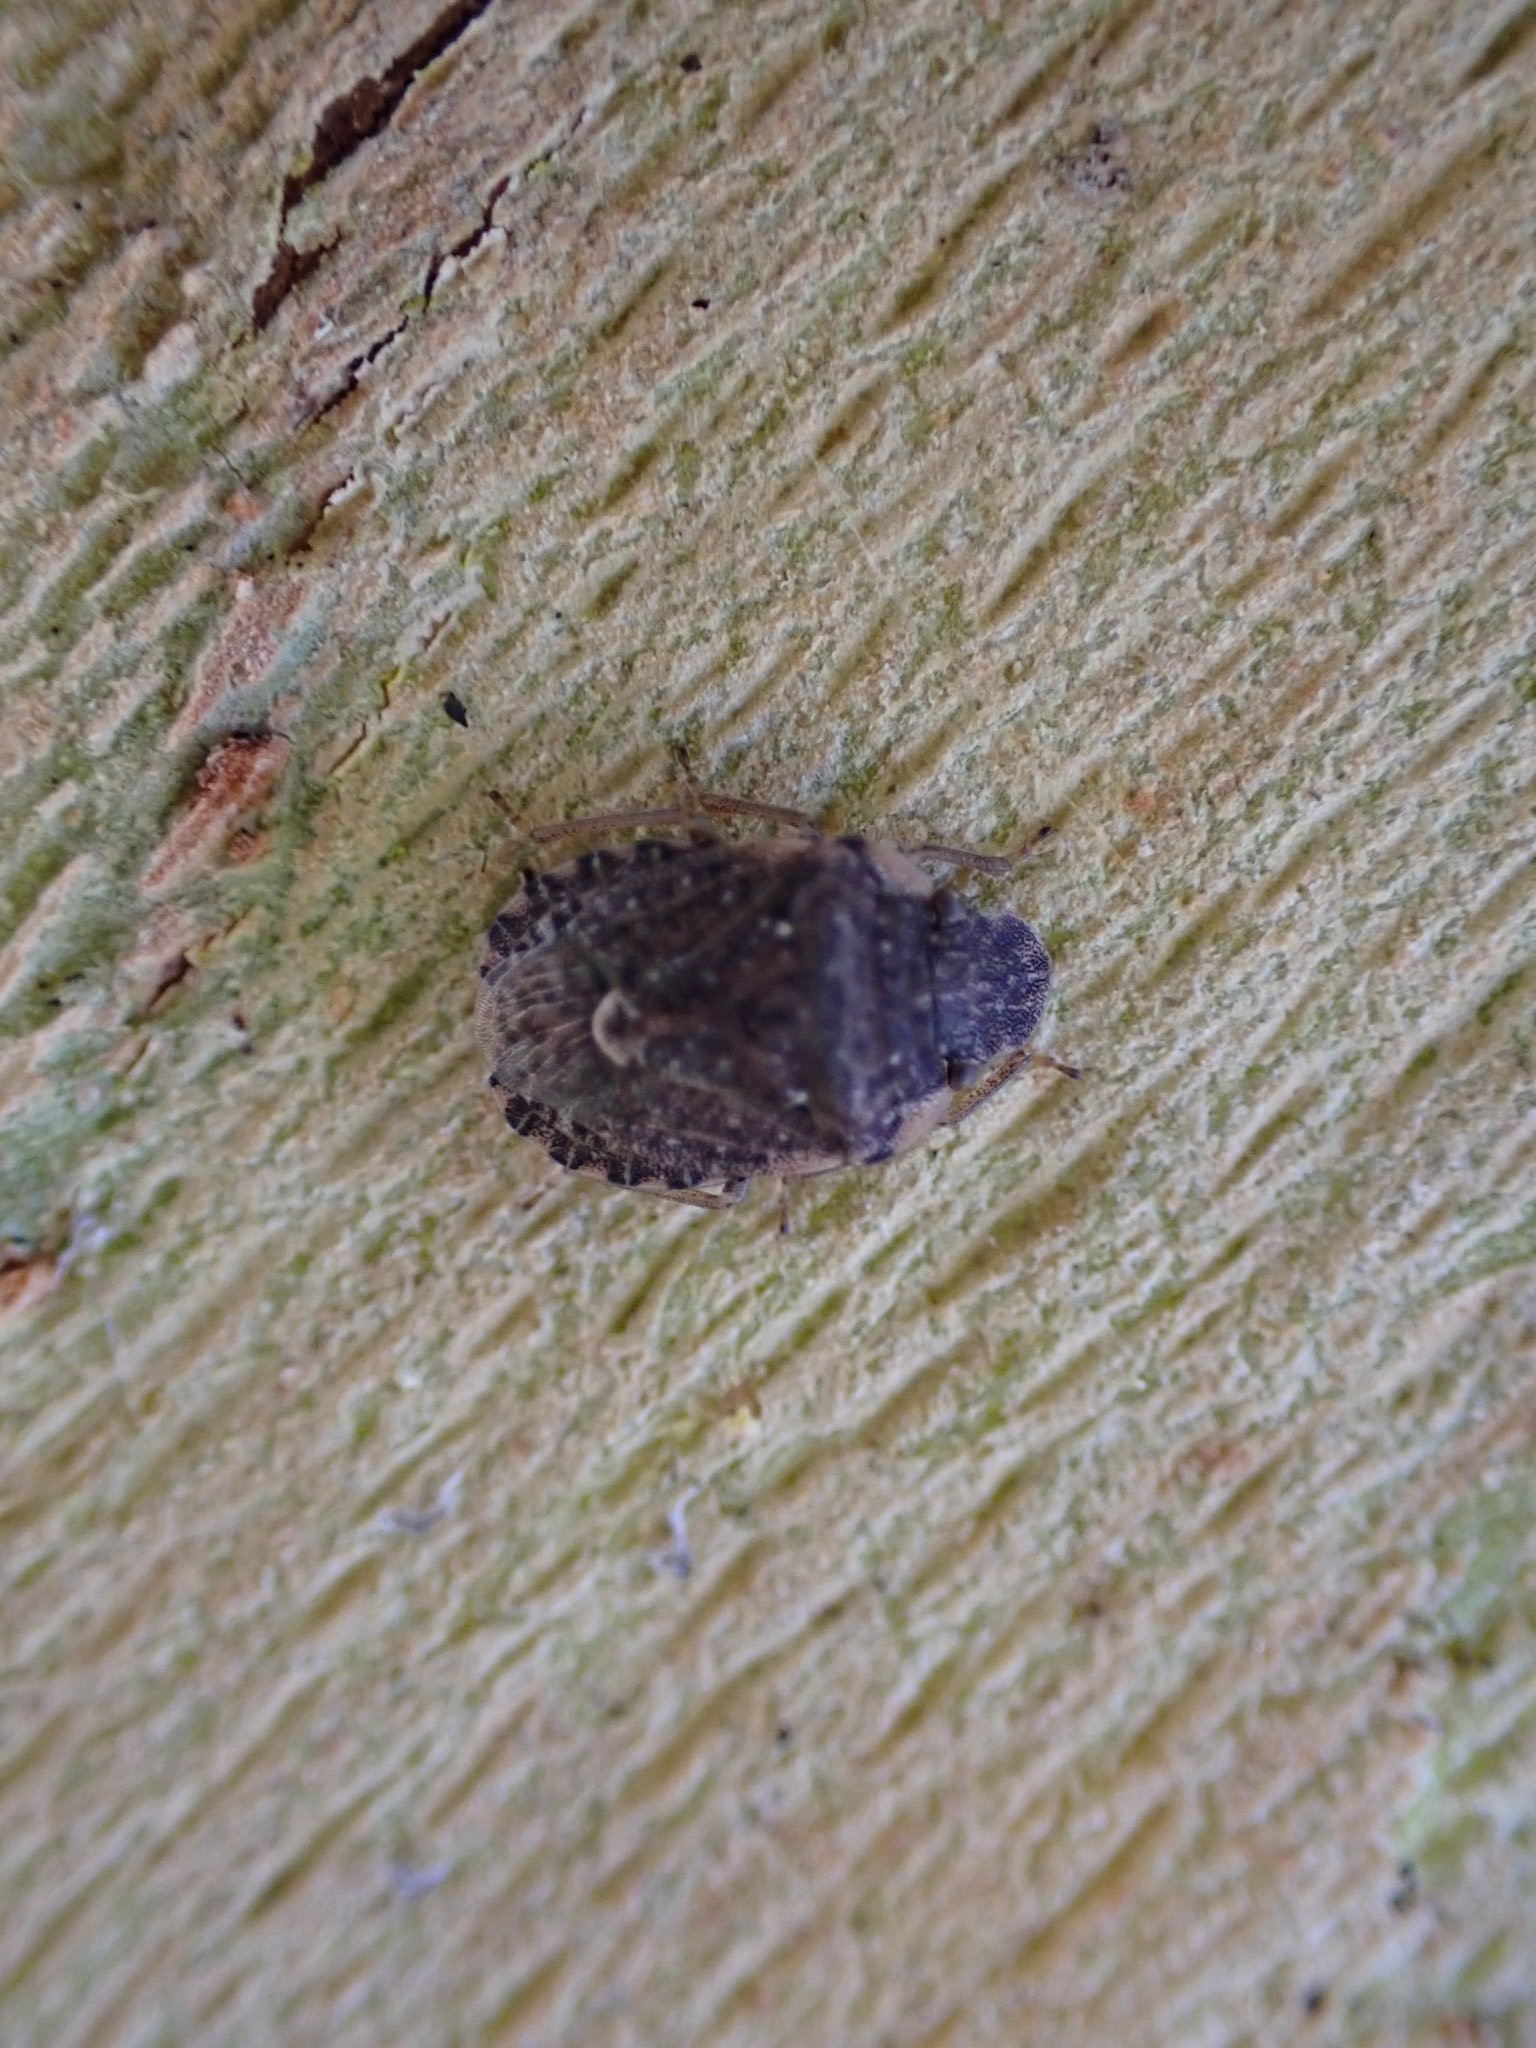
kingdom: Animalia
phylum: Arthropoda
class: Insecta
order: Hemiptera
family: Pentatomidae
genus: Sciocoris
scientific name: Sciocoris sideritidis
